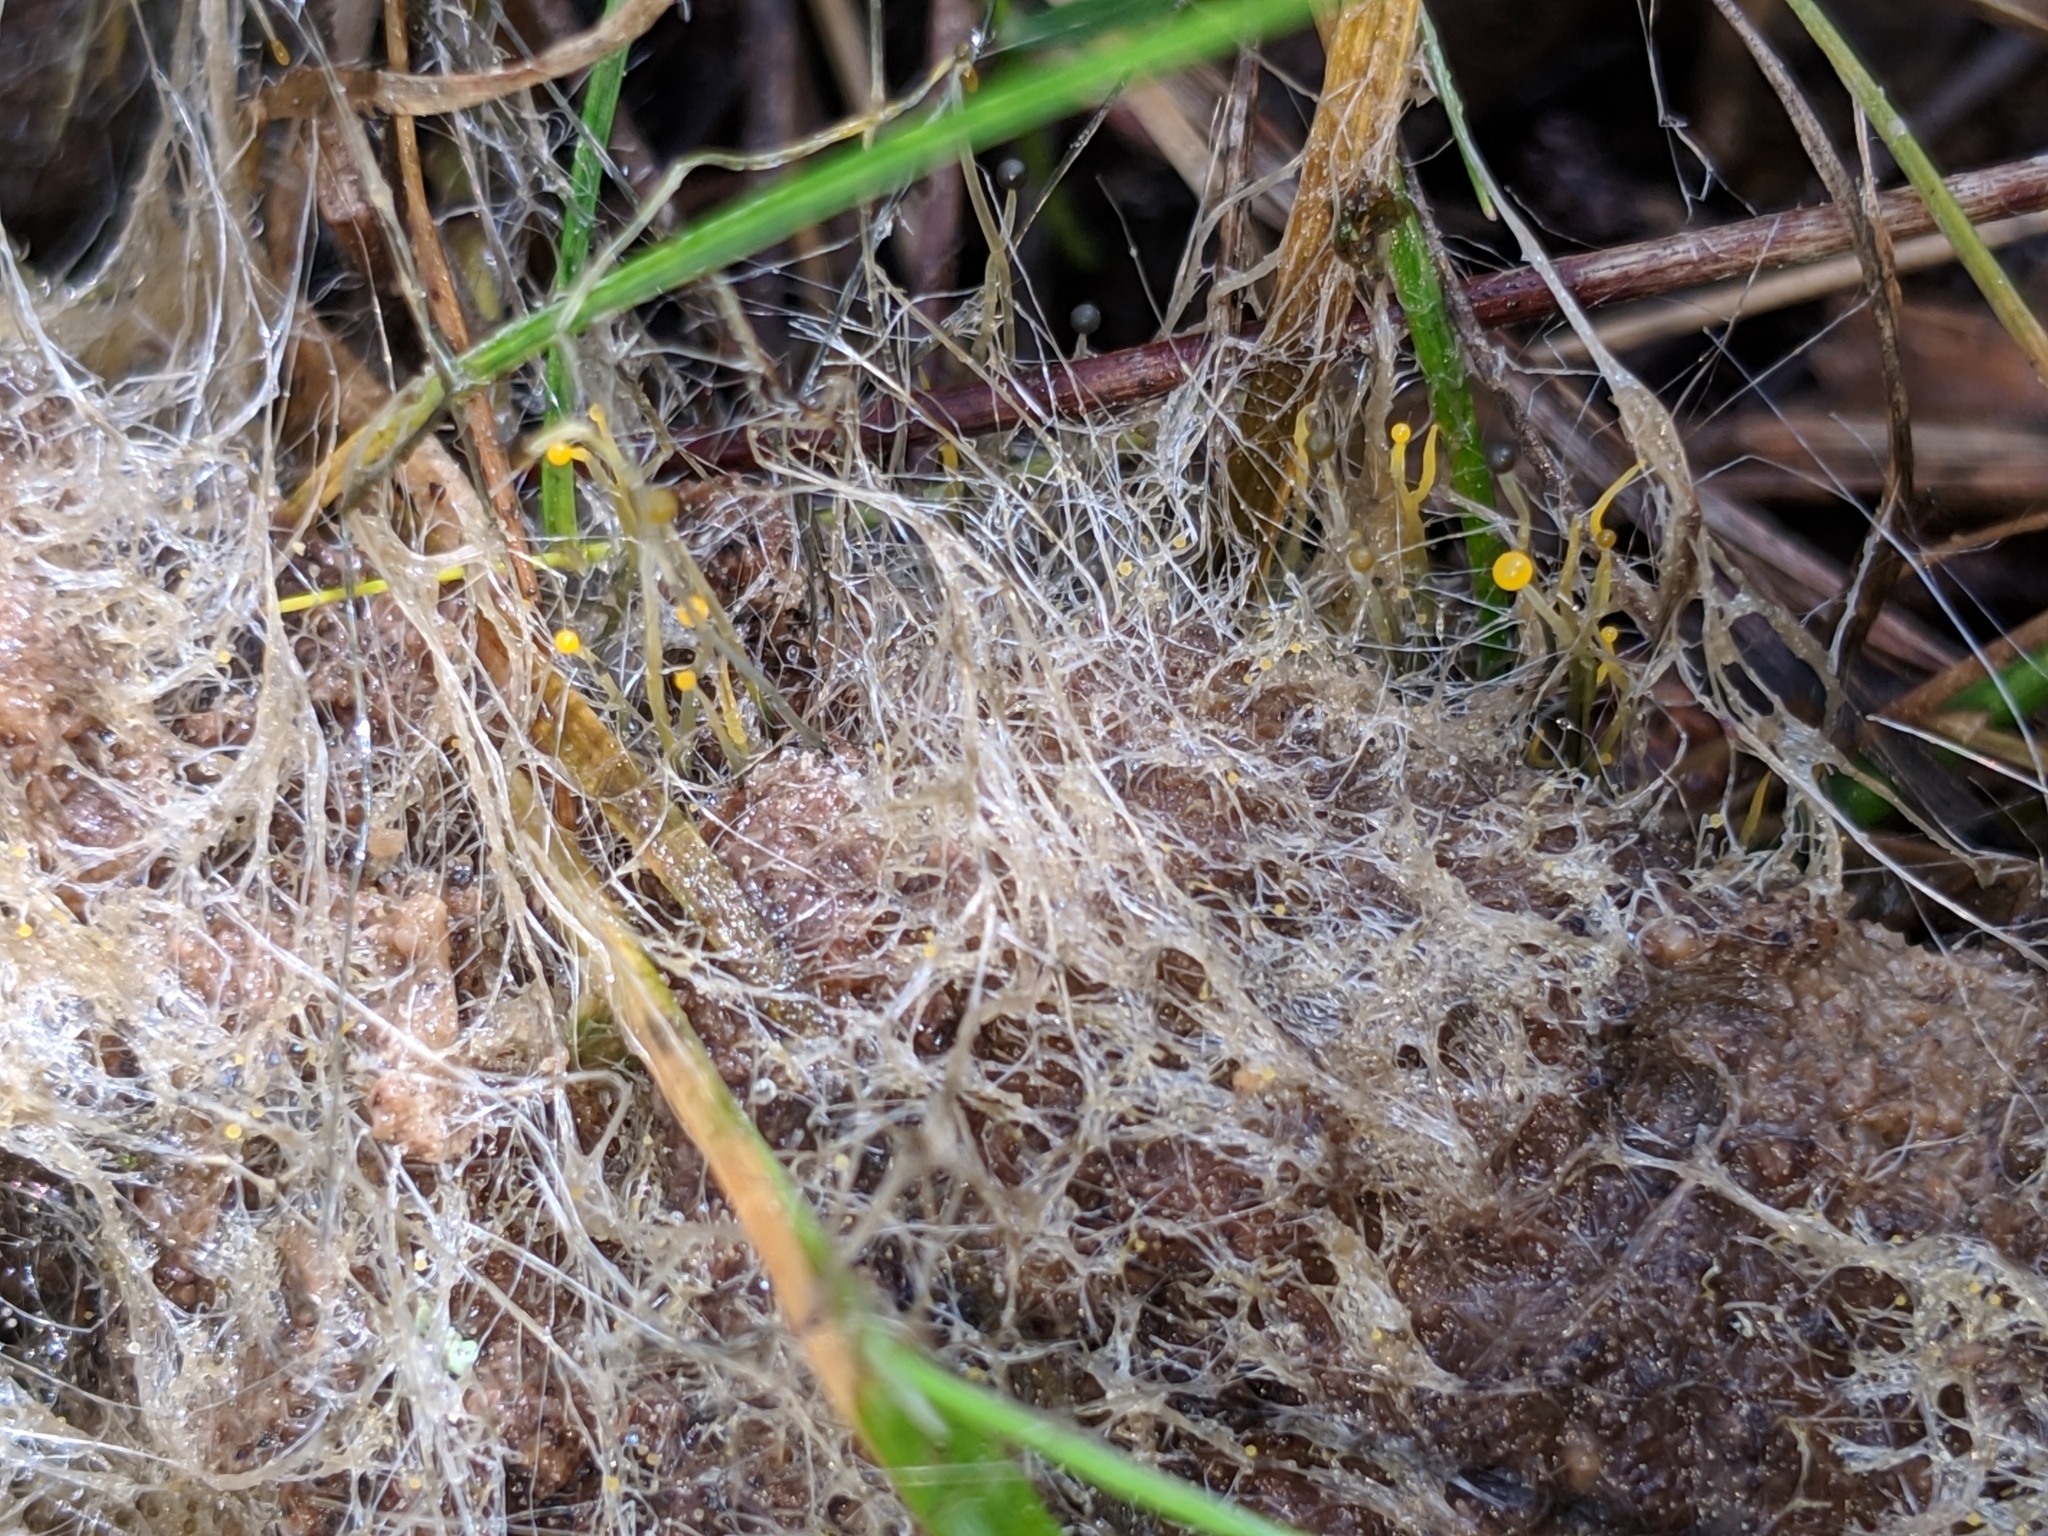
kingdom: Fungi
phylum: Mucoromycota
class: Mucoromycetes
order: Mucorales
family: Phycomycetaceae
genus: Phycomyces
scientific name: Phycomyces
